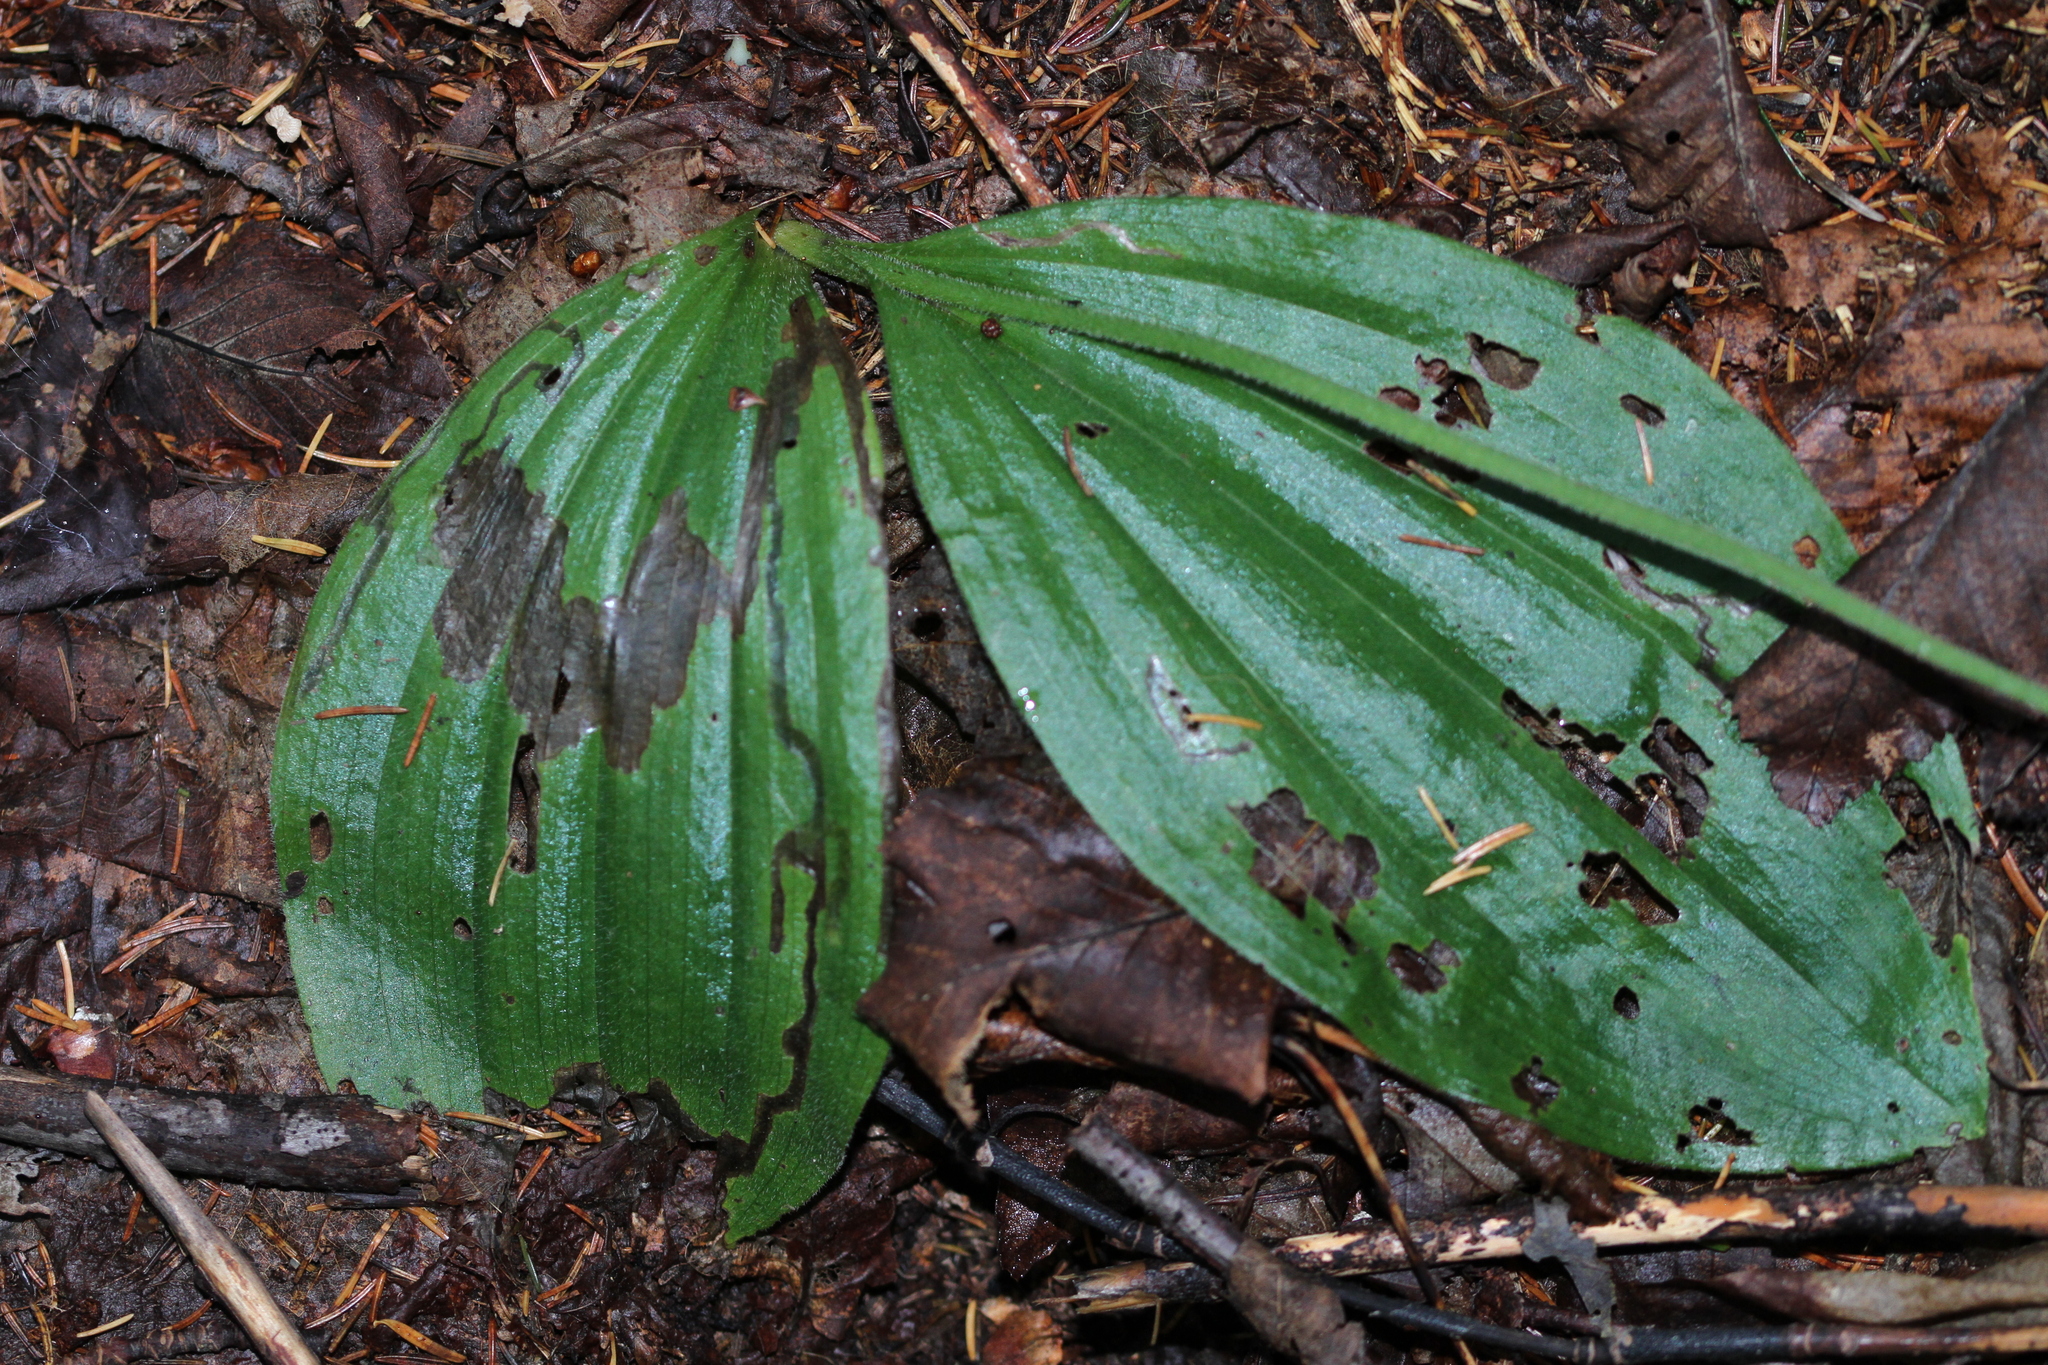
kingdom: Plantae
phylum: Tracheophyta
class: Liliopsida
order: Asparagales
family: Orchidaceae
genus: Cypripedium
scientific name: Cypripedium acaule
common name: Pink lady's-slipper
